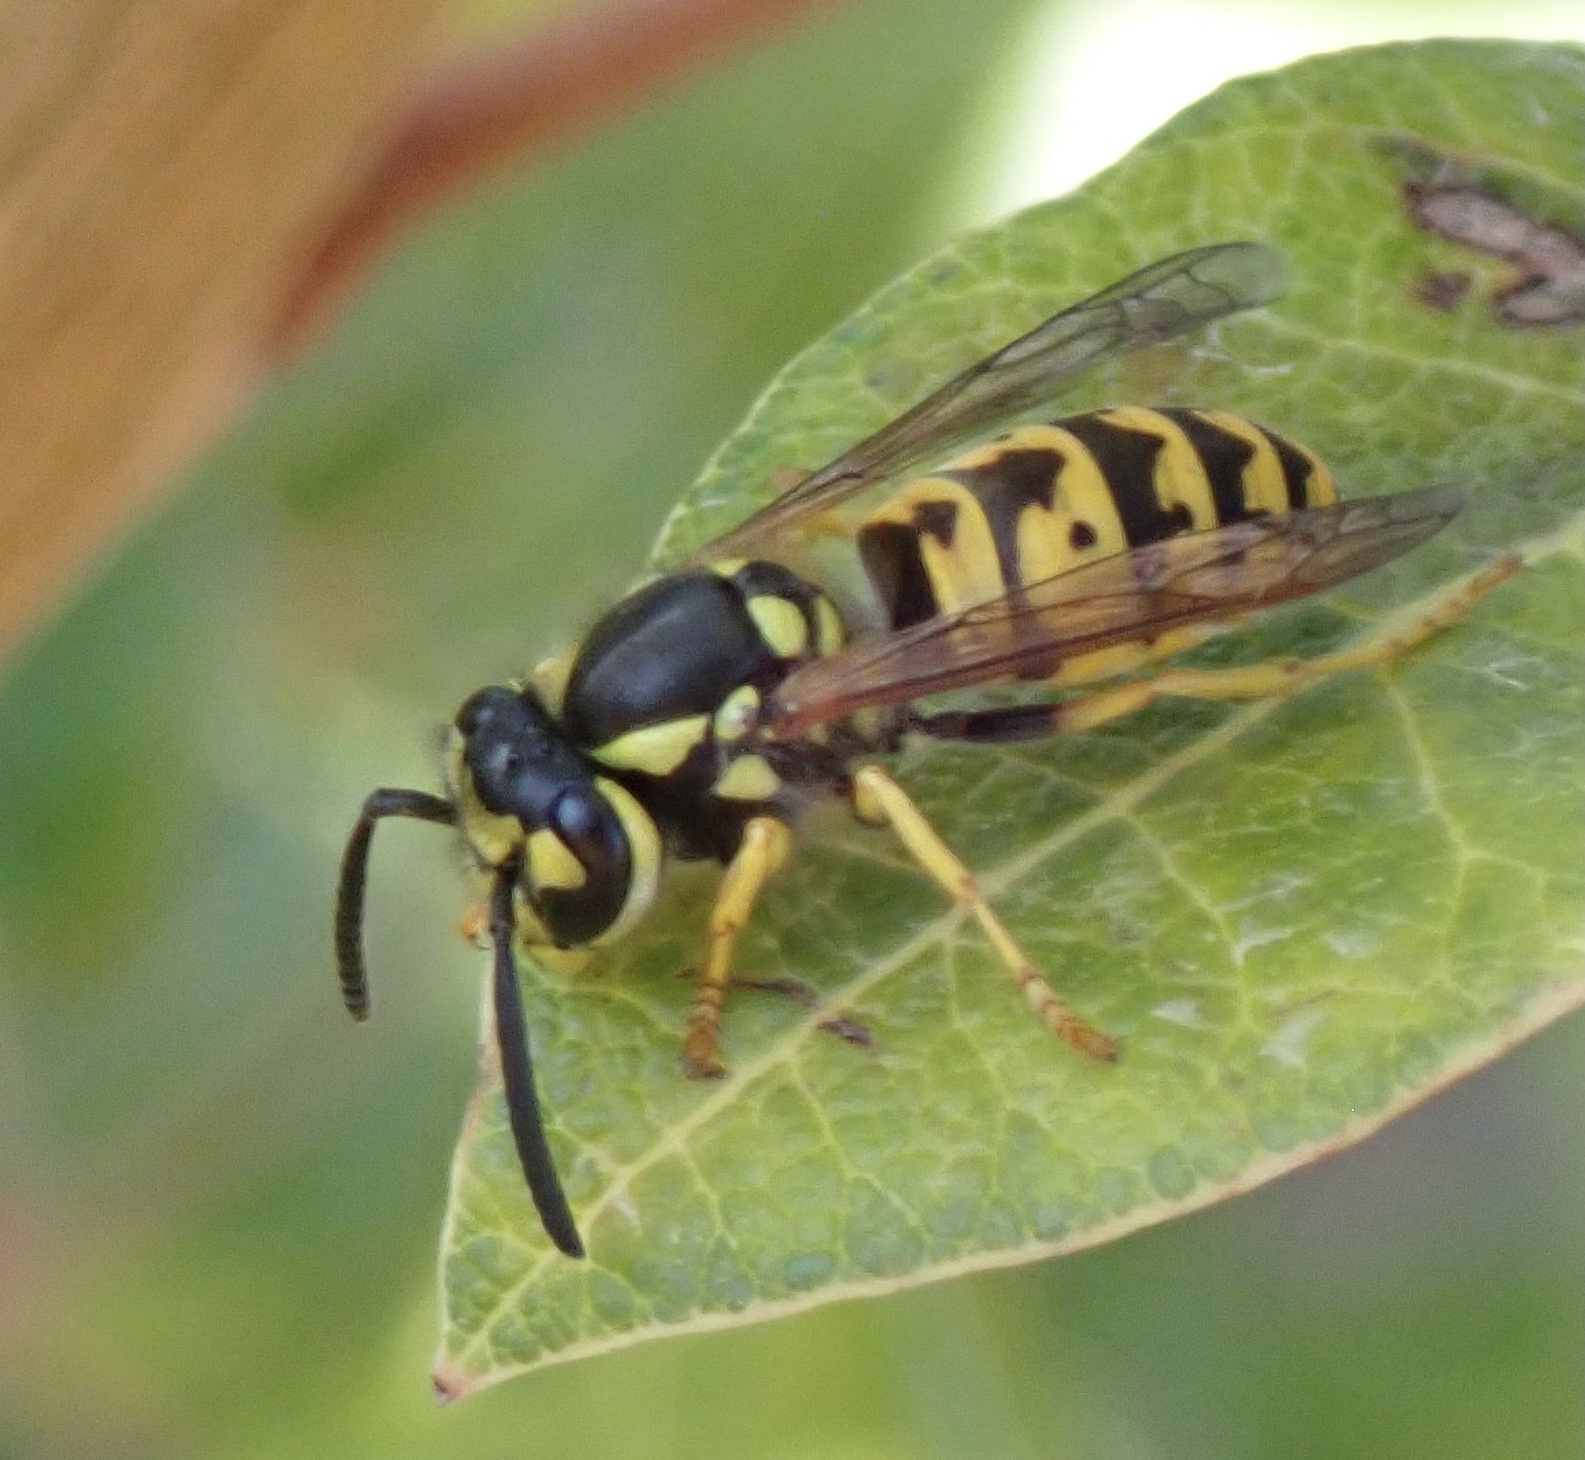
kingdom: Animalia
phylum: Arthropoda
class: Insecta
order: Hymenoptera
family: Vespidae
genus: Vespula
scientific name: Vespula germanica
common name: German wasp
